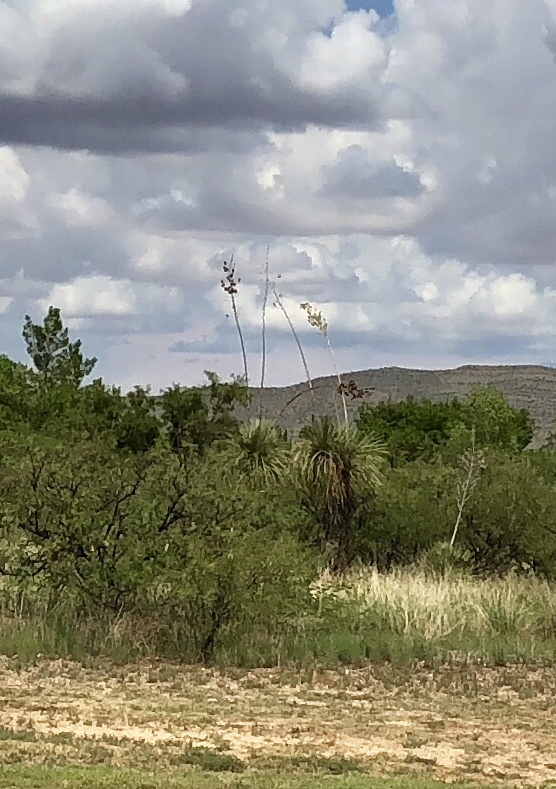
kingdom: Plantae
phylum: Tracheophyta
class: Liliopsida
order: Asparagales
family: Asparagaceae
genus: Yucca
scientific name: Yucca elata
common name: Palmella
